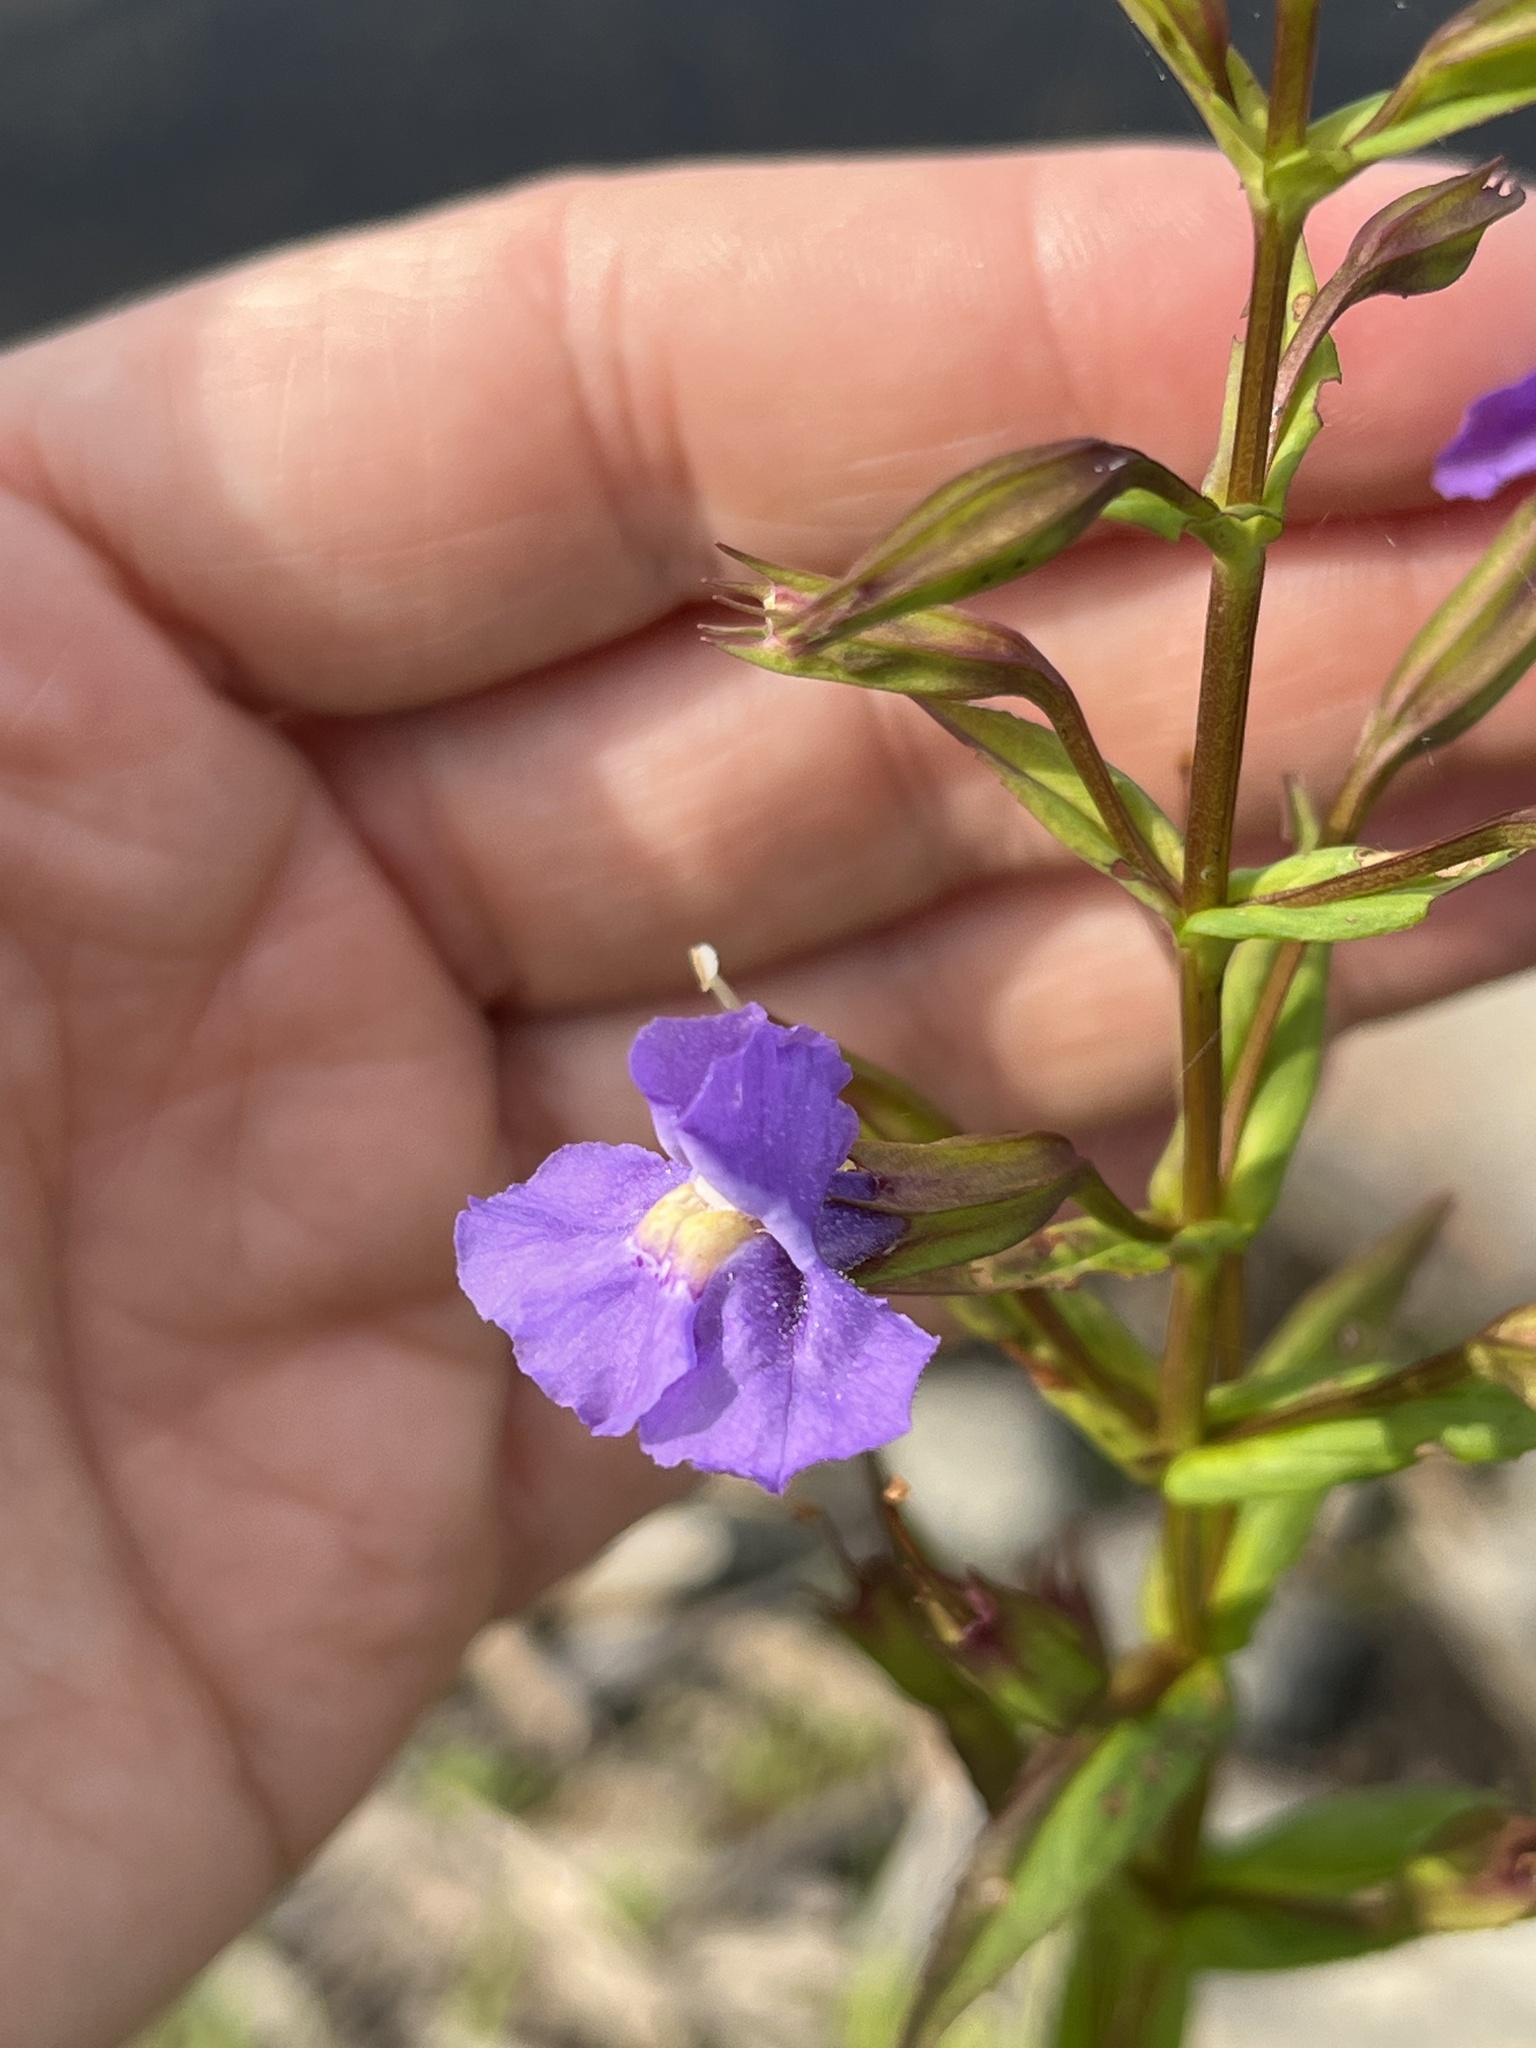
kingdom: Plantae
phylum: Tracheophyta
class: Magnoliopsida
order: Lamiales
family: Phrymaceae
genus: Mimulus
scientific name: Mimulus ringens
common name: Allegheny monkeyflower
